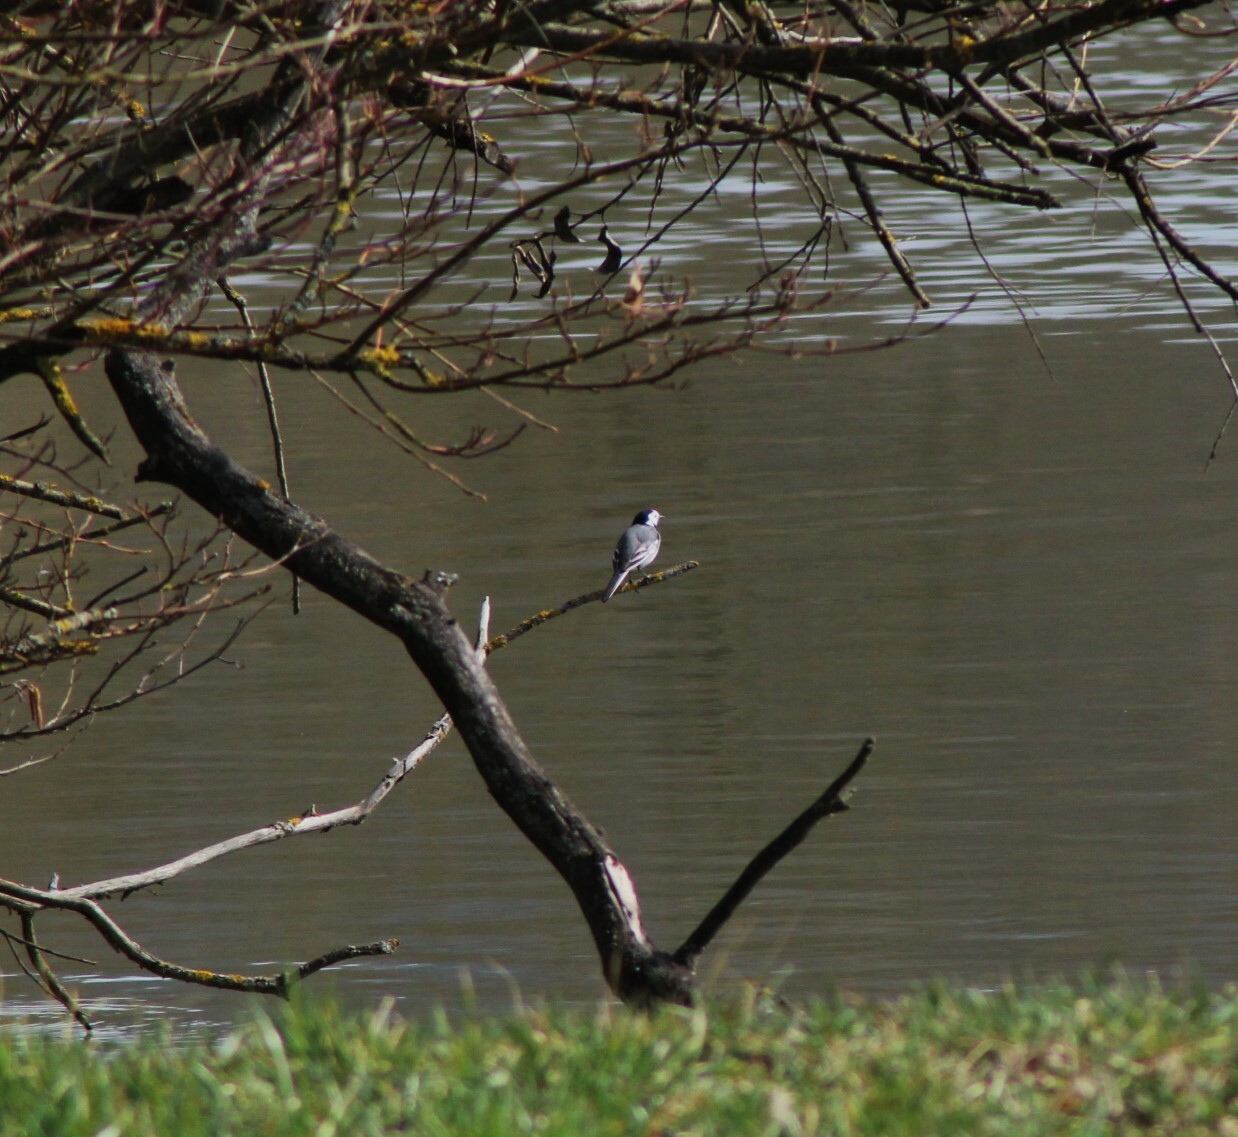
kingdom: Animalia
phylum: Chordata
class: Aves
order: Passeriformes
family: Motacillidae
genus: Motacilla
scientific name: Motacilla alba
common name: White wagtail
